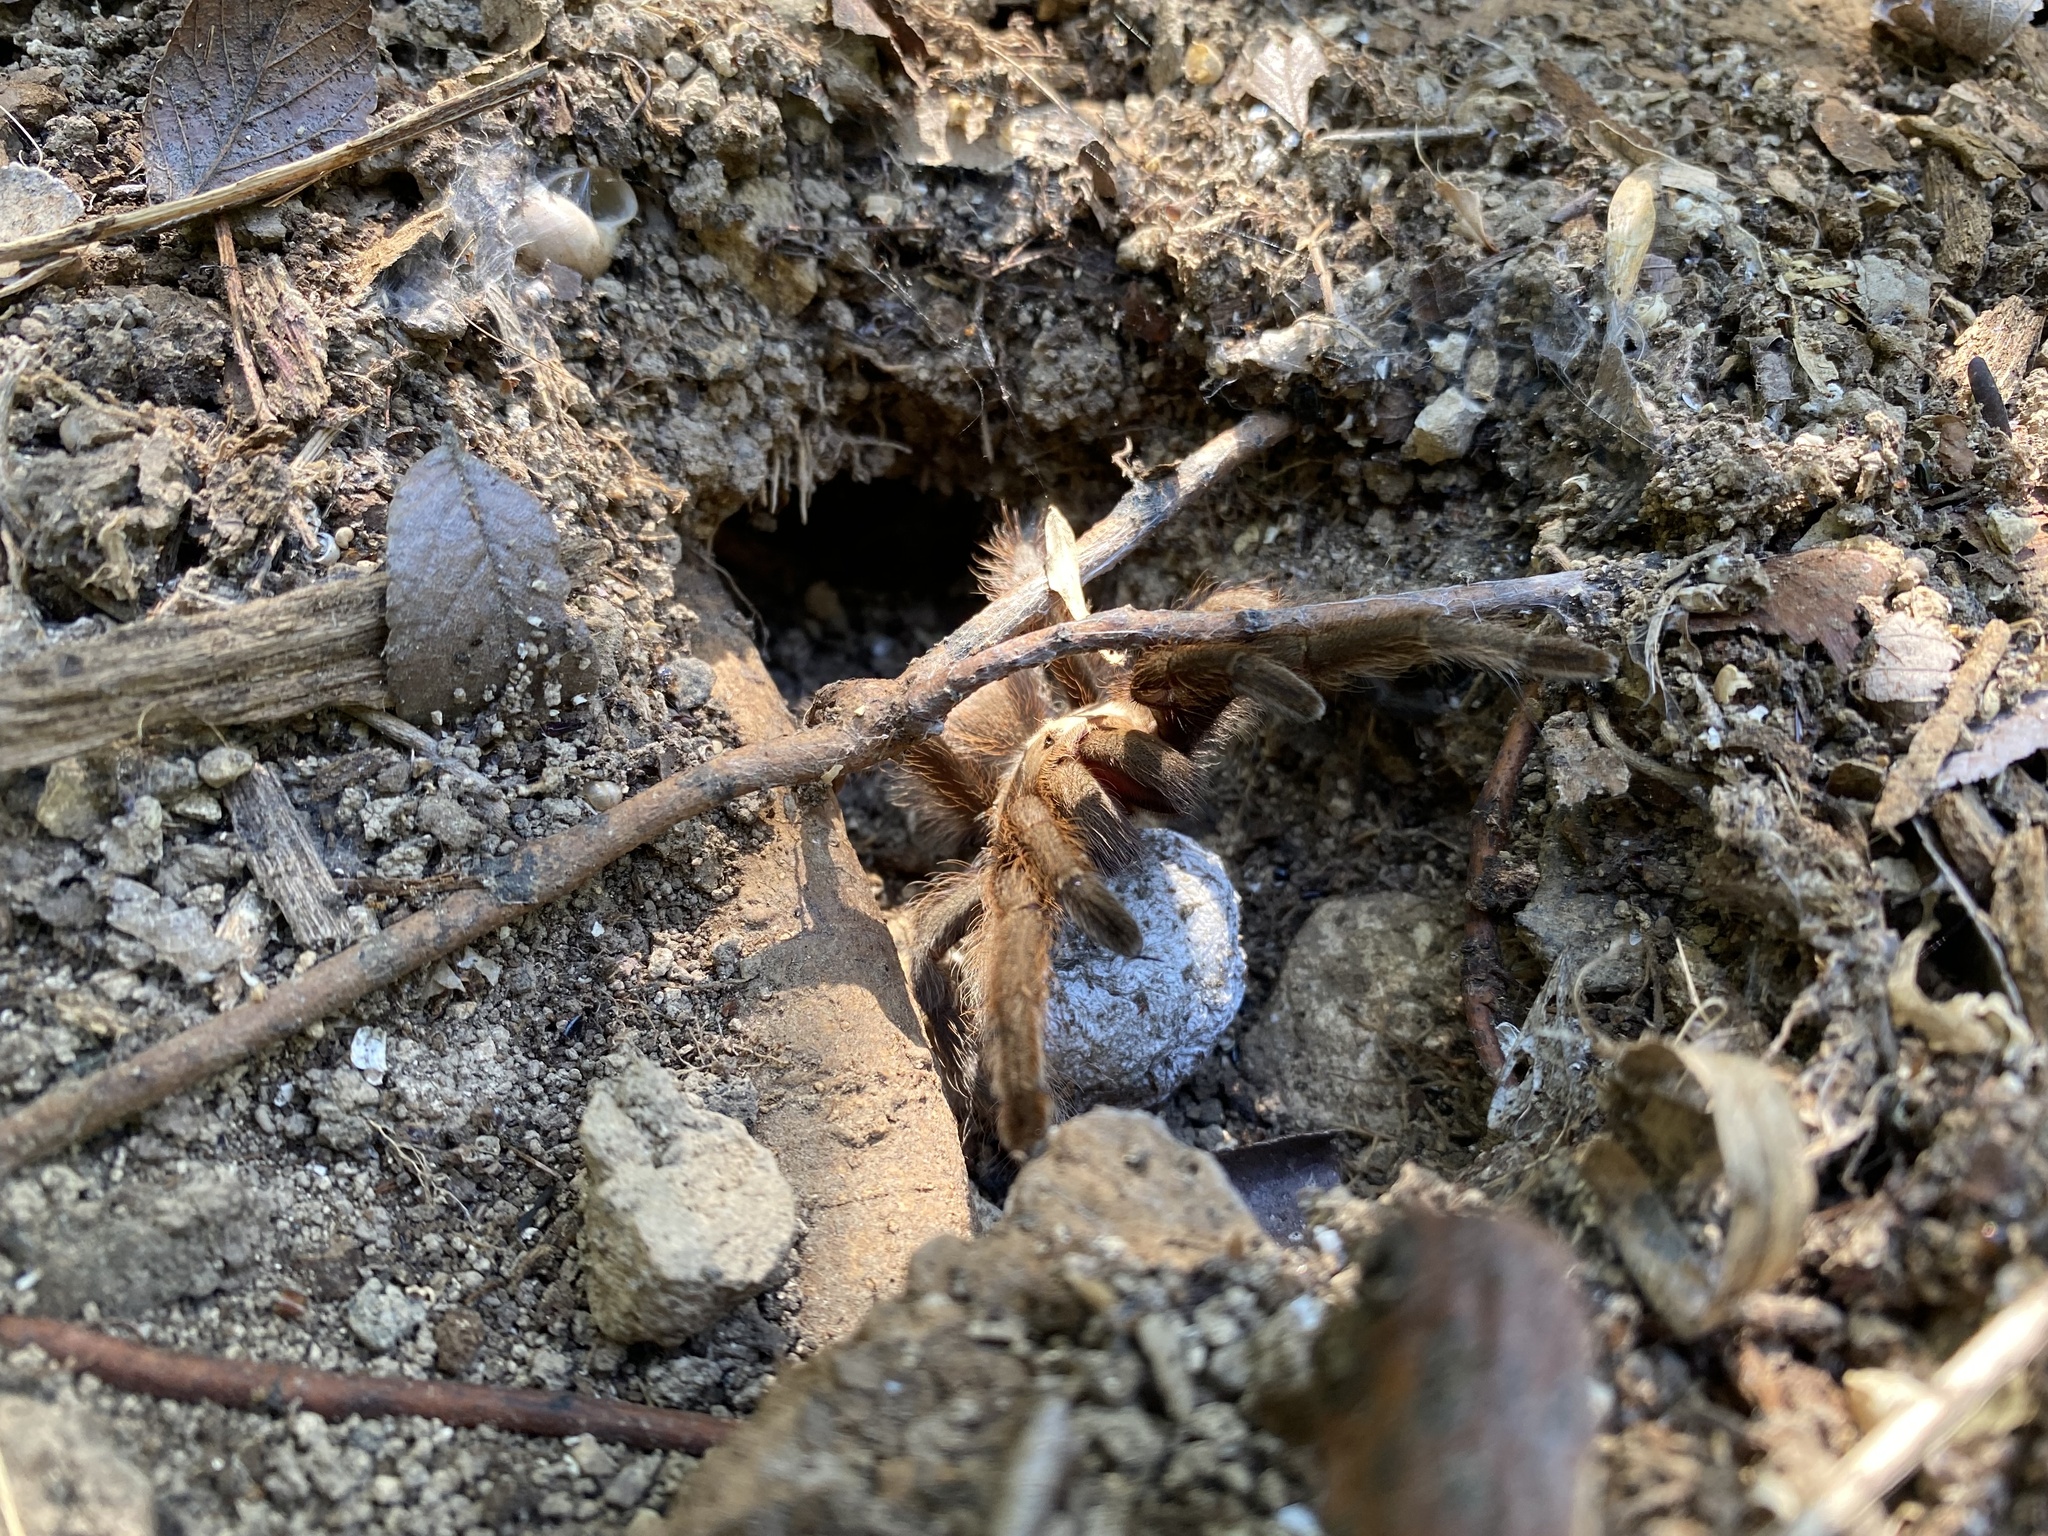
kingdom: Animalia
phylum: Arthropoda
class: Arachnida
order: Araneae
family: Theraphosidae
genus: Aphonopelma
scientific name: Aphonopelma hentzi
